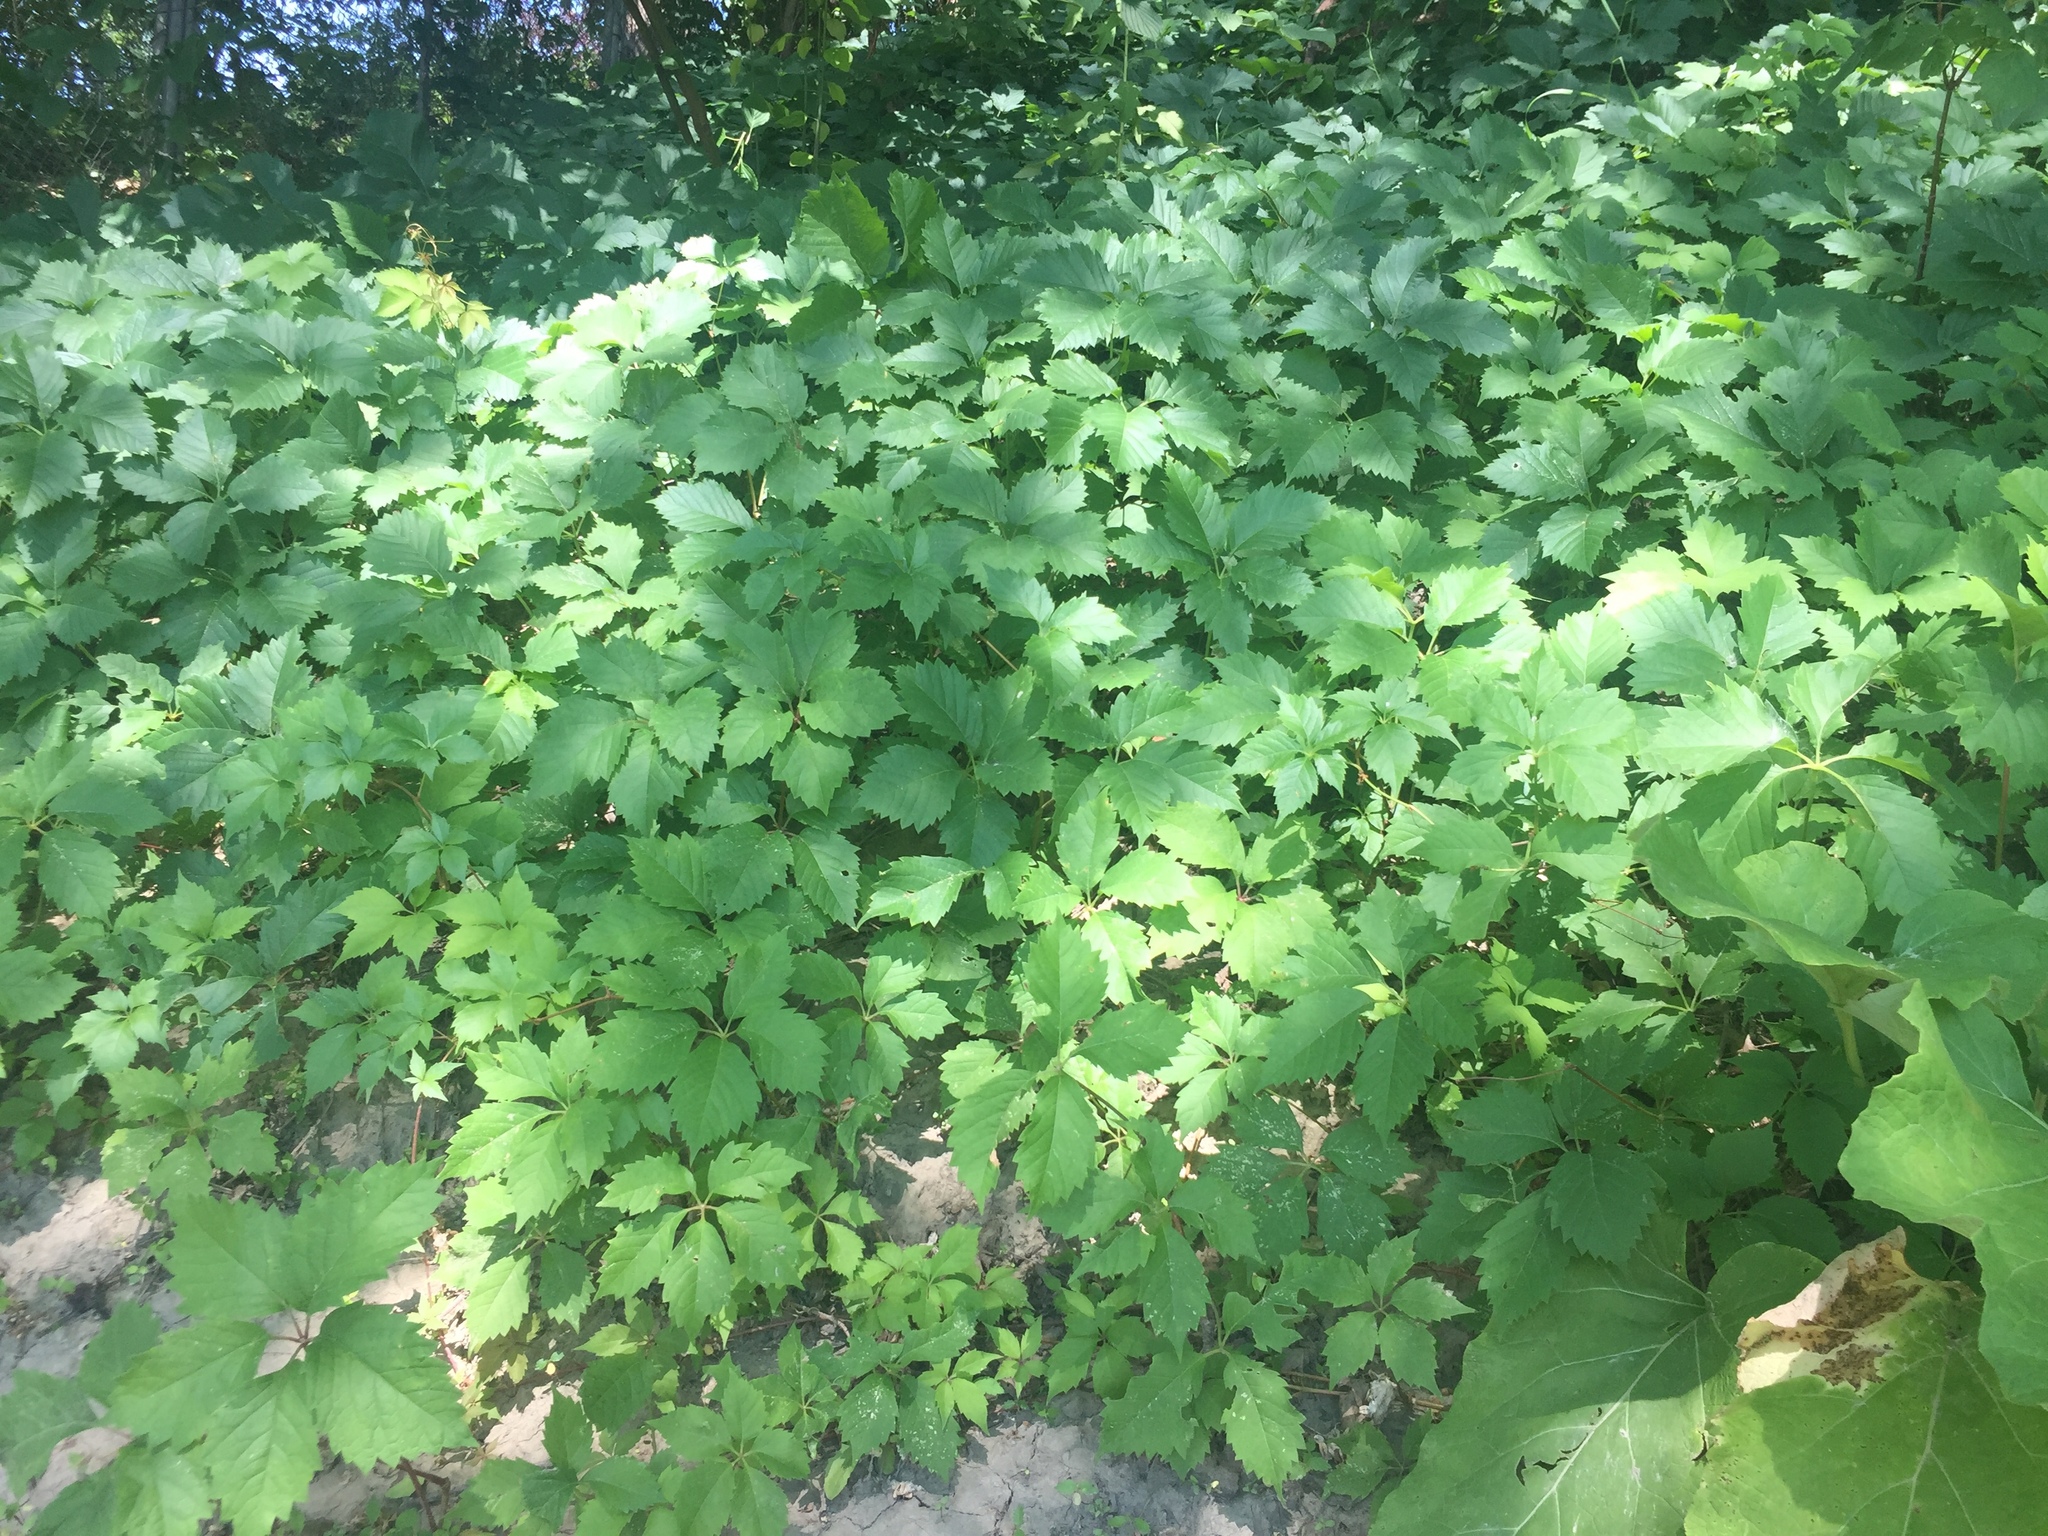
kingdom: Plantae
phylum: Tracheophyta
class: Magnoliopsida
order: Vitales
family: Vitaceae
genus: Parthenocissus
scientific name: Parthenocissus quinquefolia
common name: Virginia-creeper
